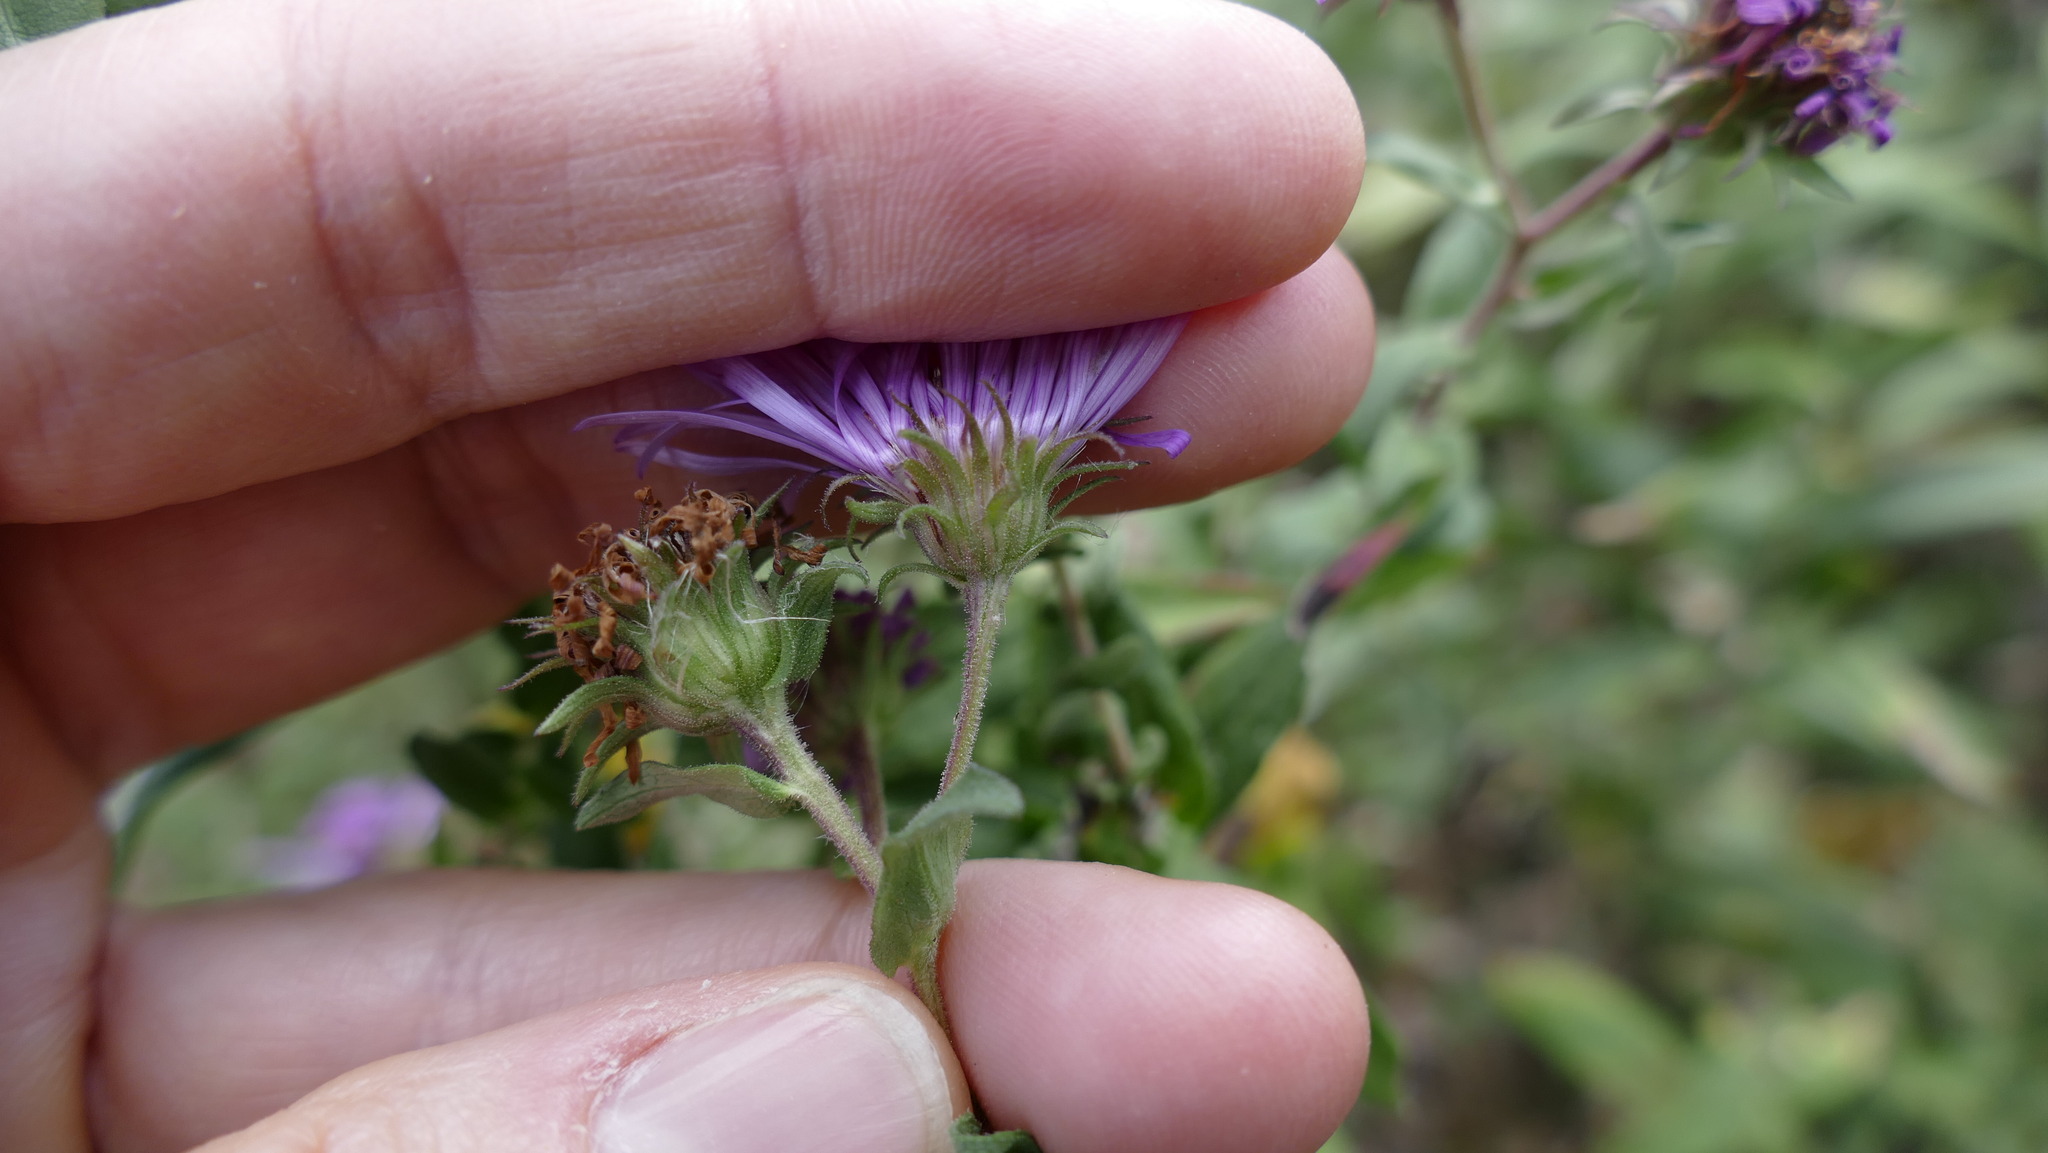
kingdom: Plantae
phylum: Tracheophyta
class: Magnoliopsida
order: Asterales
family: Asteraceae
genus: Symphyotrichum
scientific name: Symphyotrichum novae-angliae
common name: Michaelmas daisy
